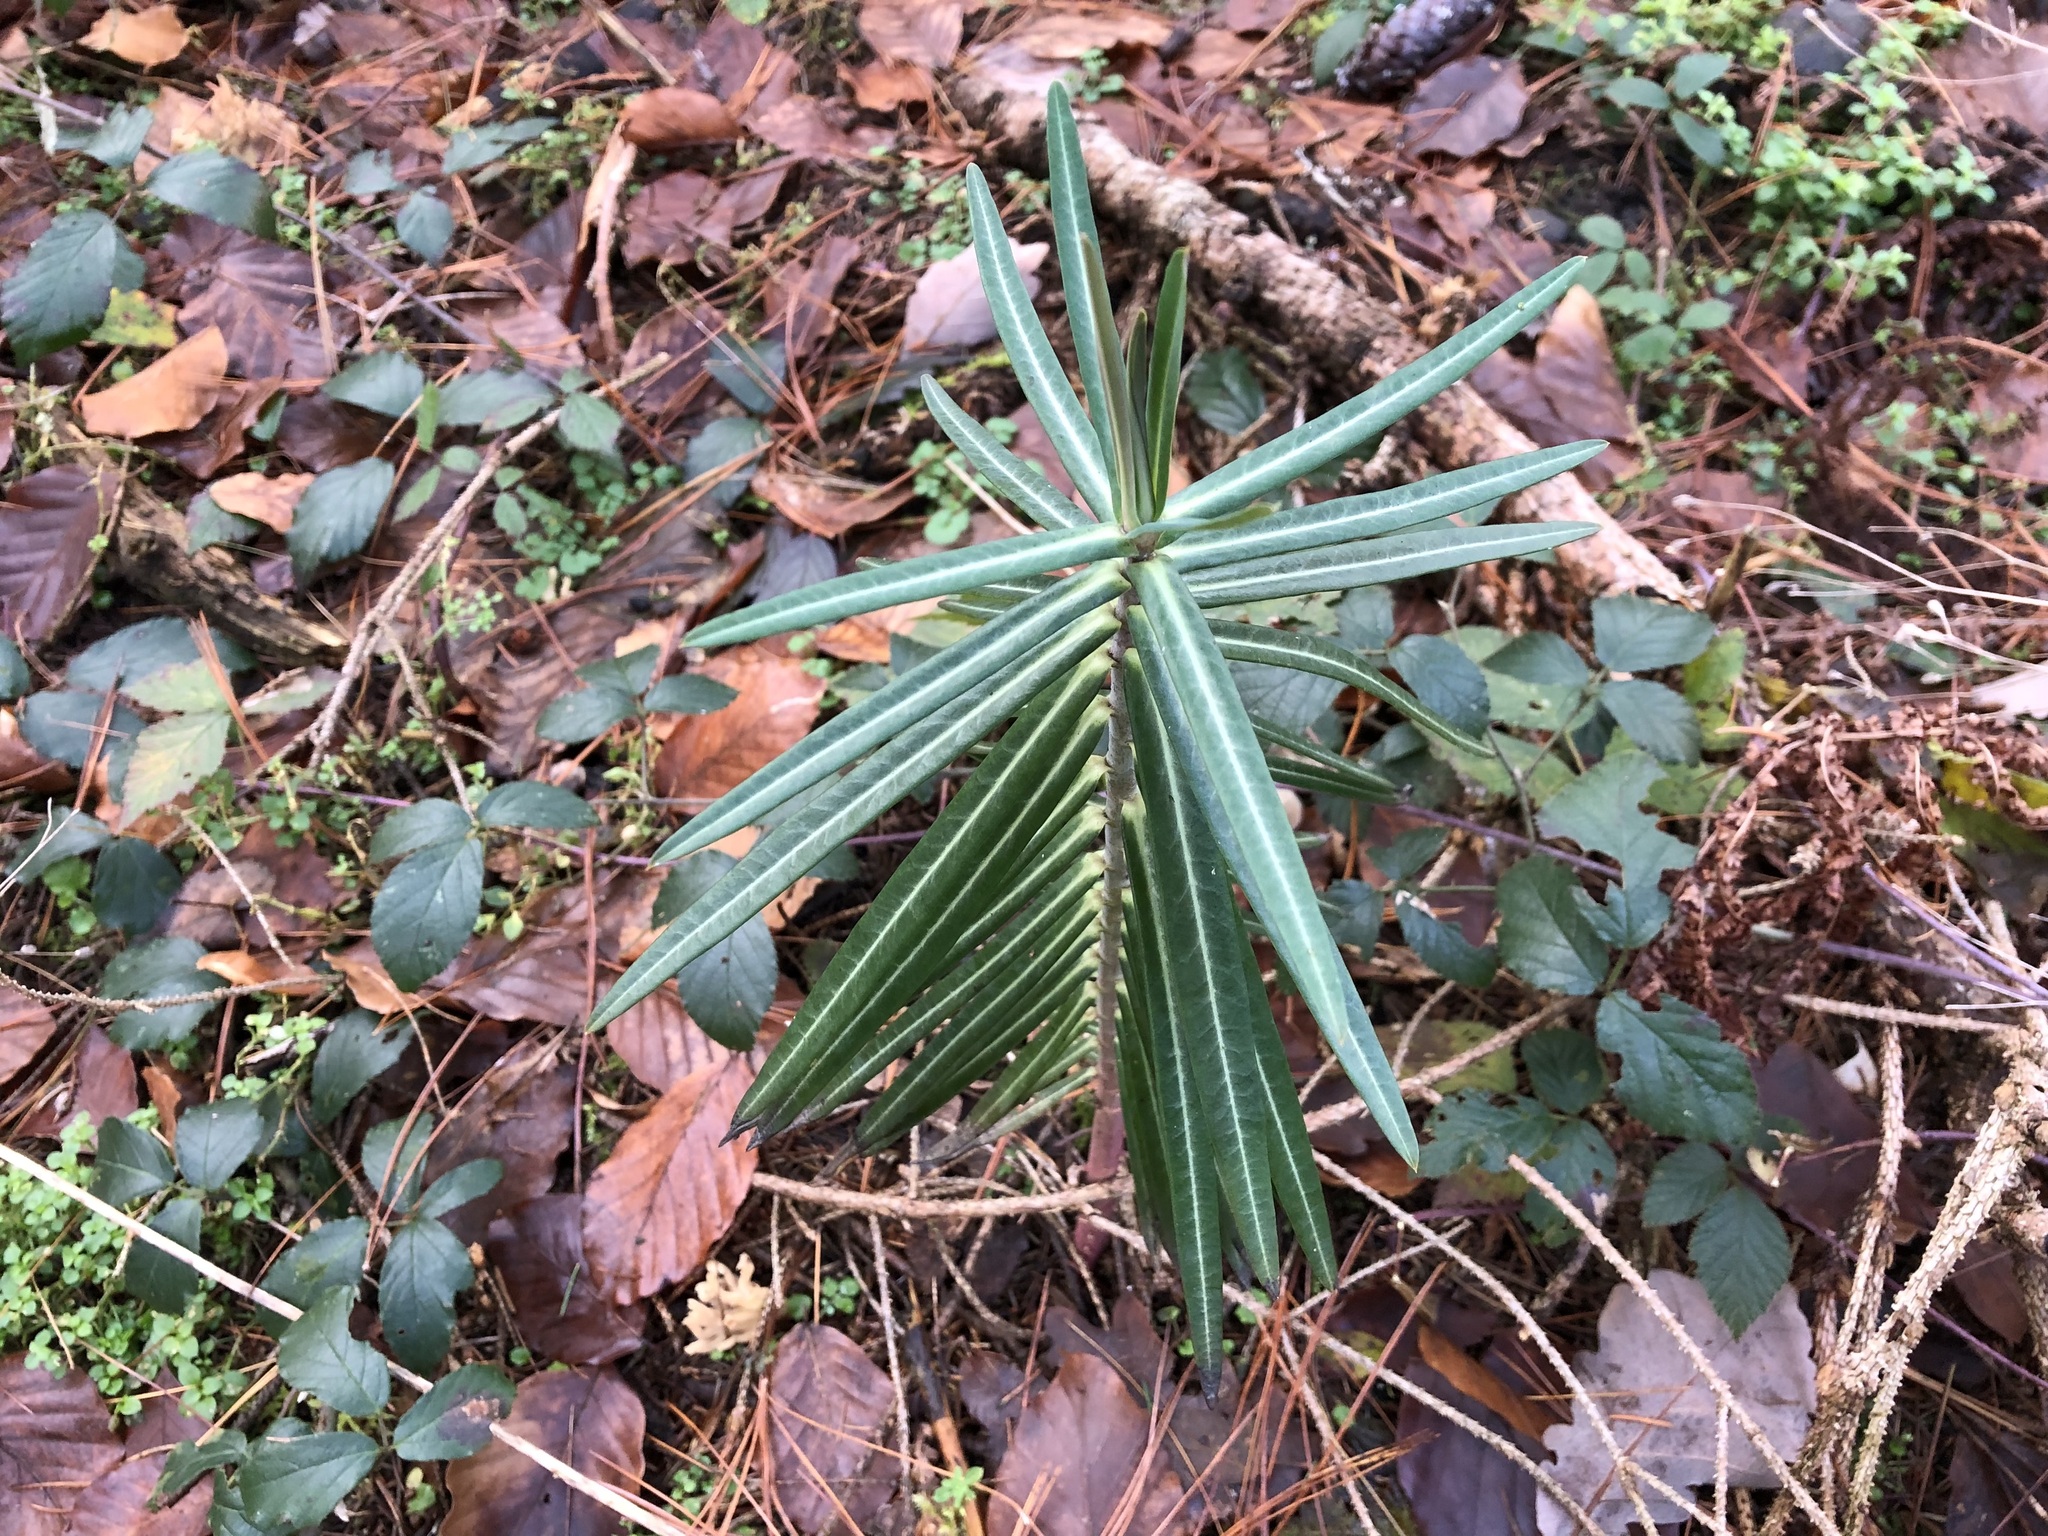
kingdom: Plantae
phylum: Tracheophyta
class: Magnoliopsida
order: Malpighiales
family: Euphorbiaceae
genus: Euphorbia
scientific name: Euphorbia lathyris
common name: Caper spurge
